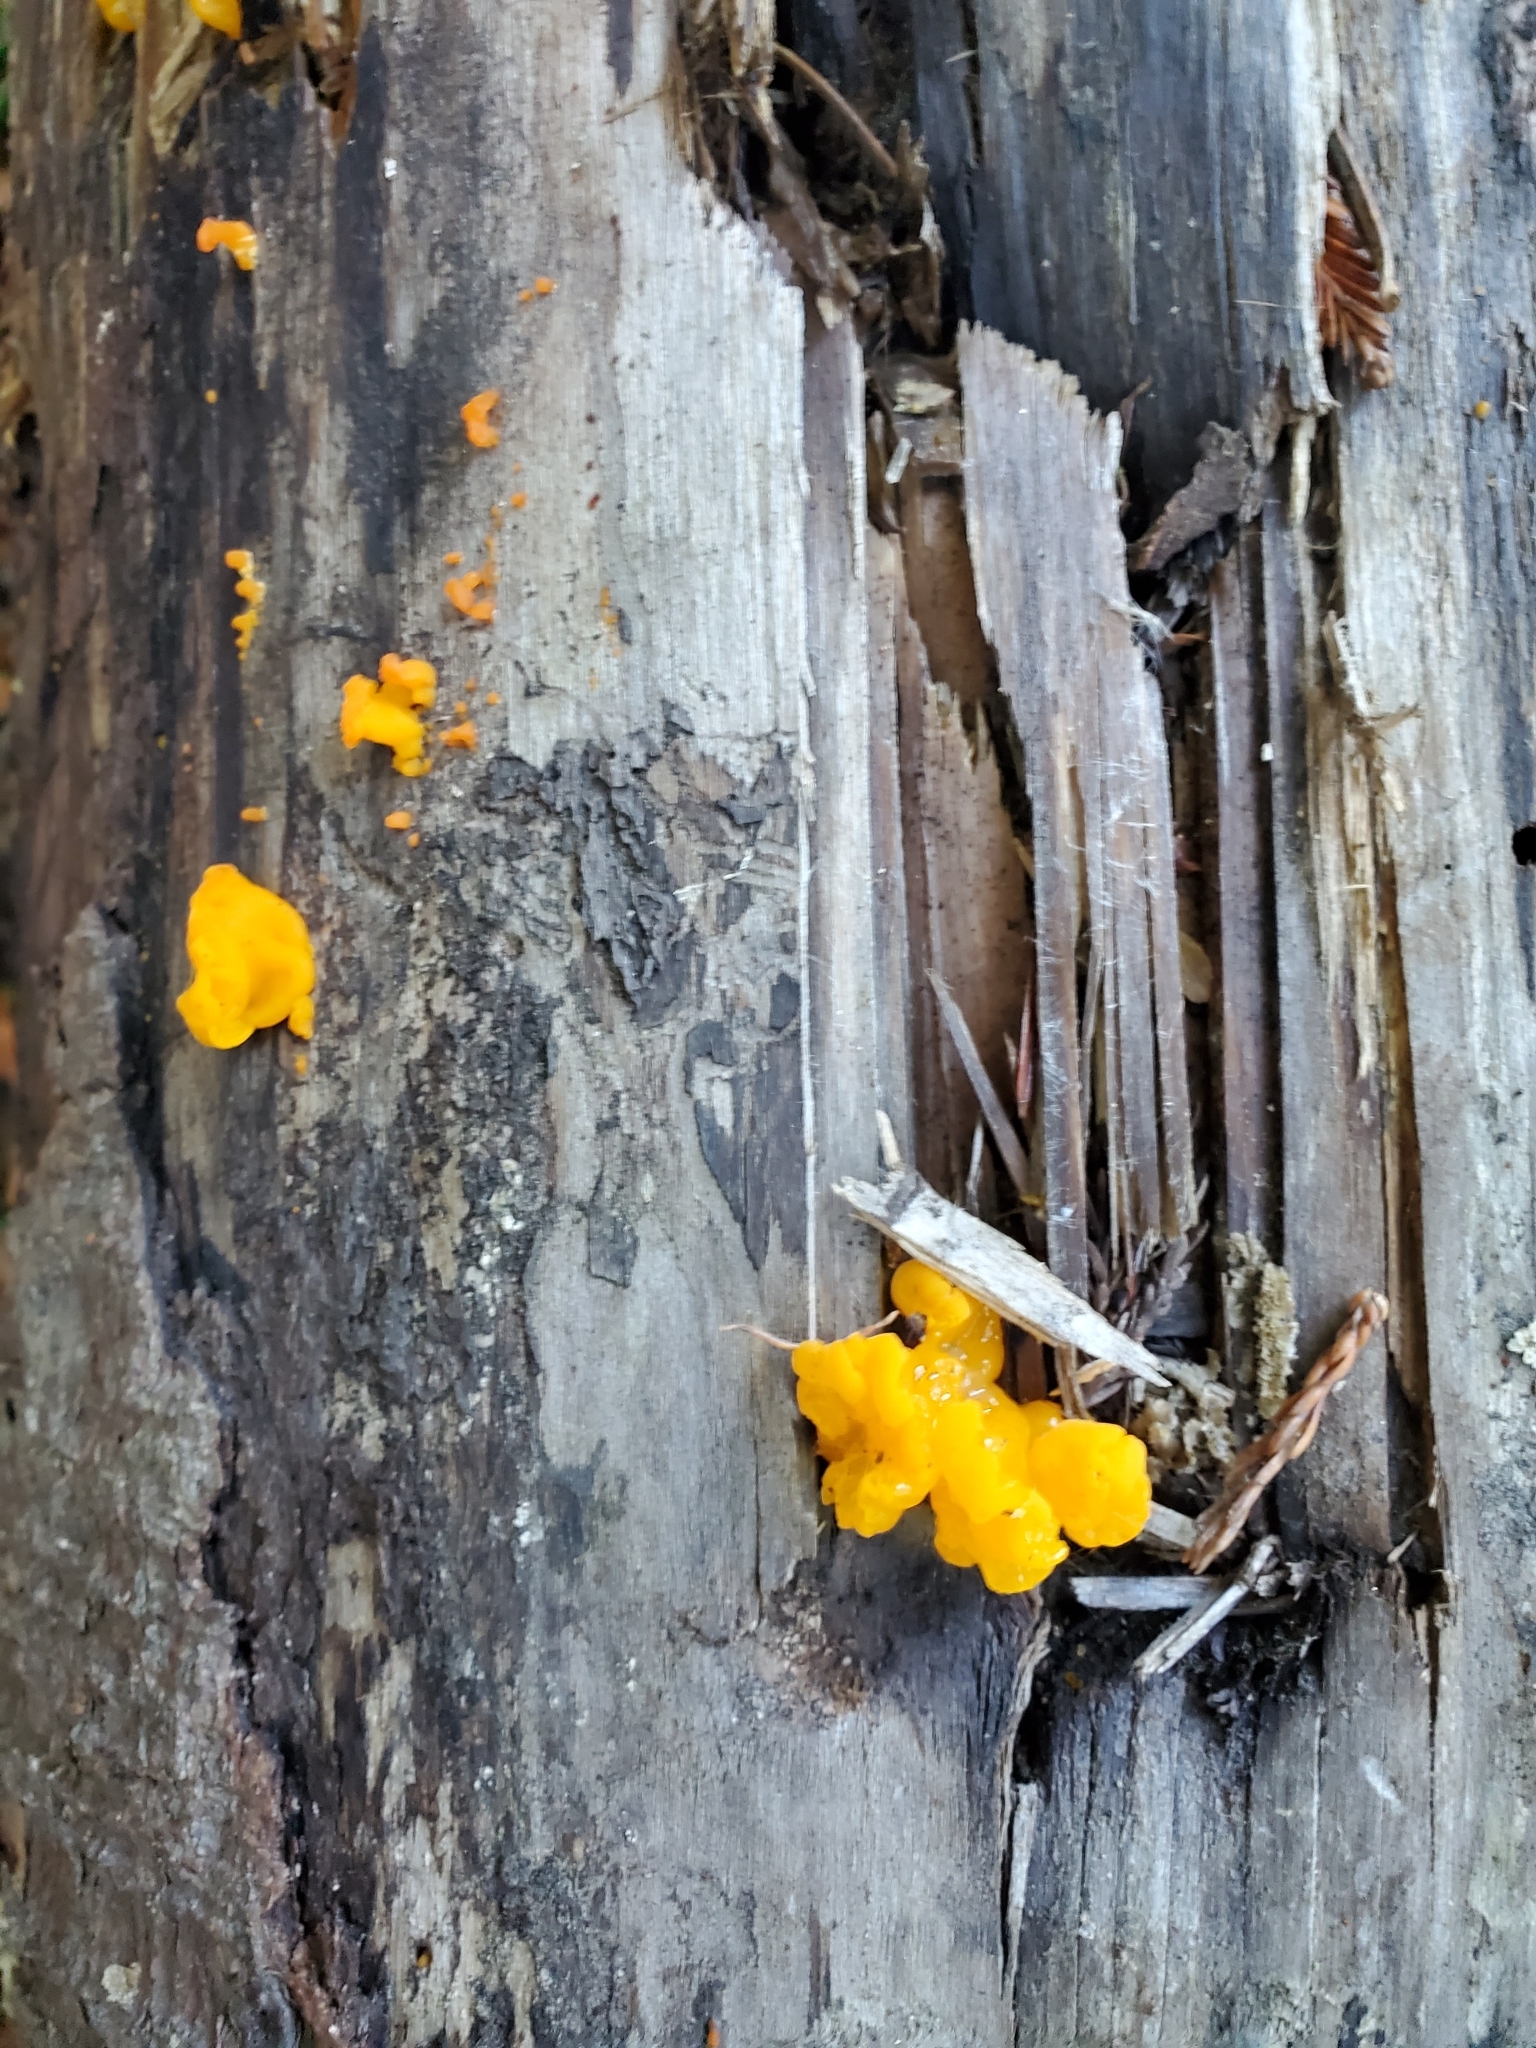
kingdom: Fungi
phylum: Basidiomycota
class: Dacrymycetes
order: Dacrymycetales
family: Dacrymycetaceae
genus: Dacrymyces
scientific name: Dacrymyces chrysospermus
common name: Orange jelly spot
